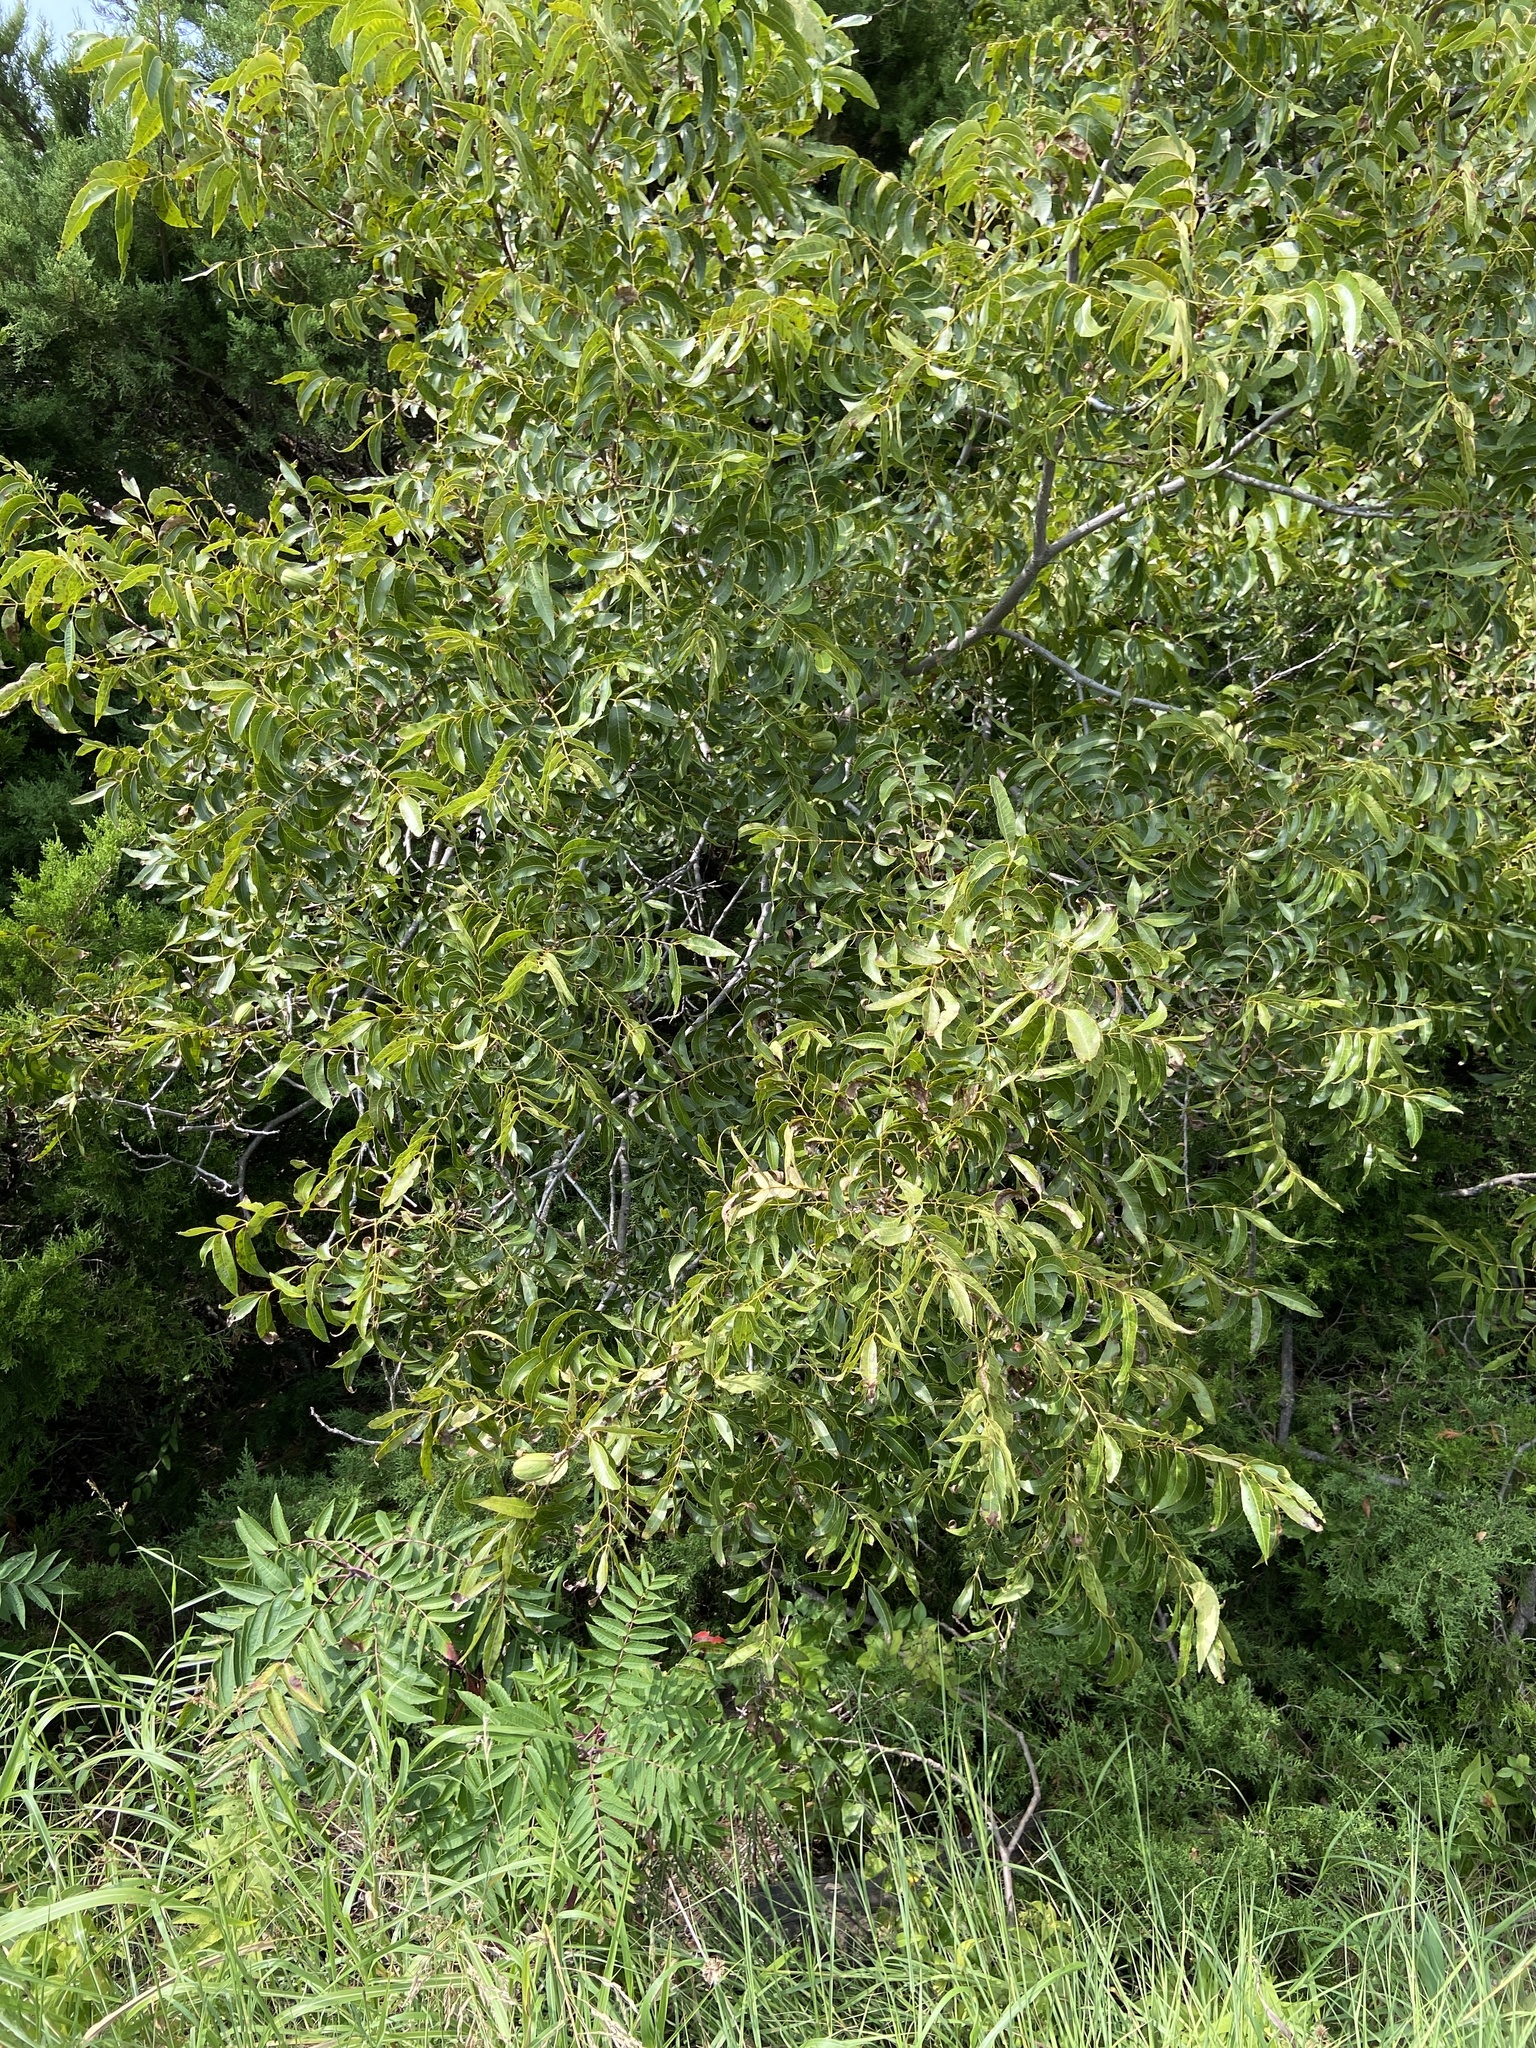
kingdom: Plantae
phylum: Tracheophyta
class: Magnoliopsida
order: Fagales
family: Juglandaceae
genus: Carya
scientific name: Carya illinoinensis
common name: Pecan
